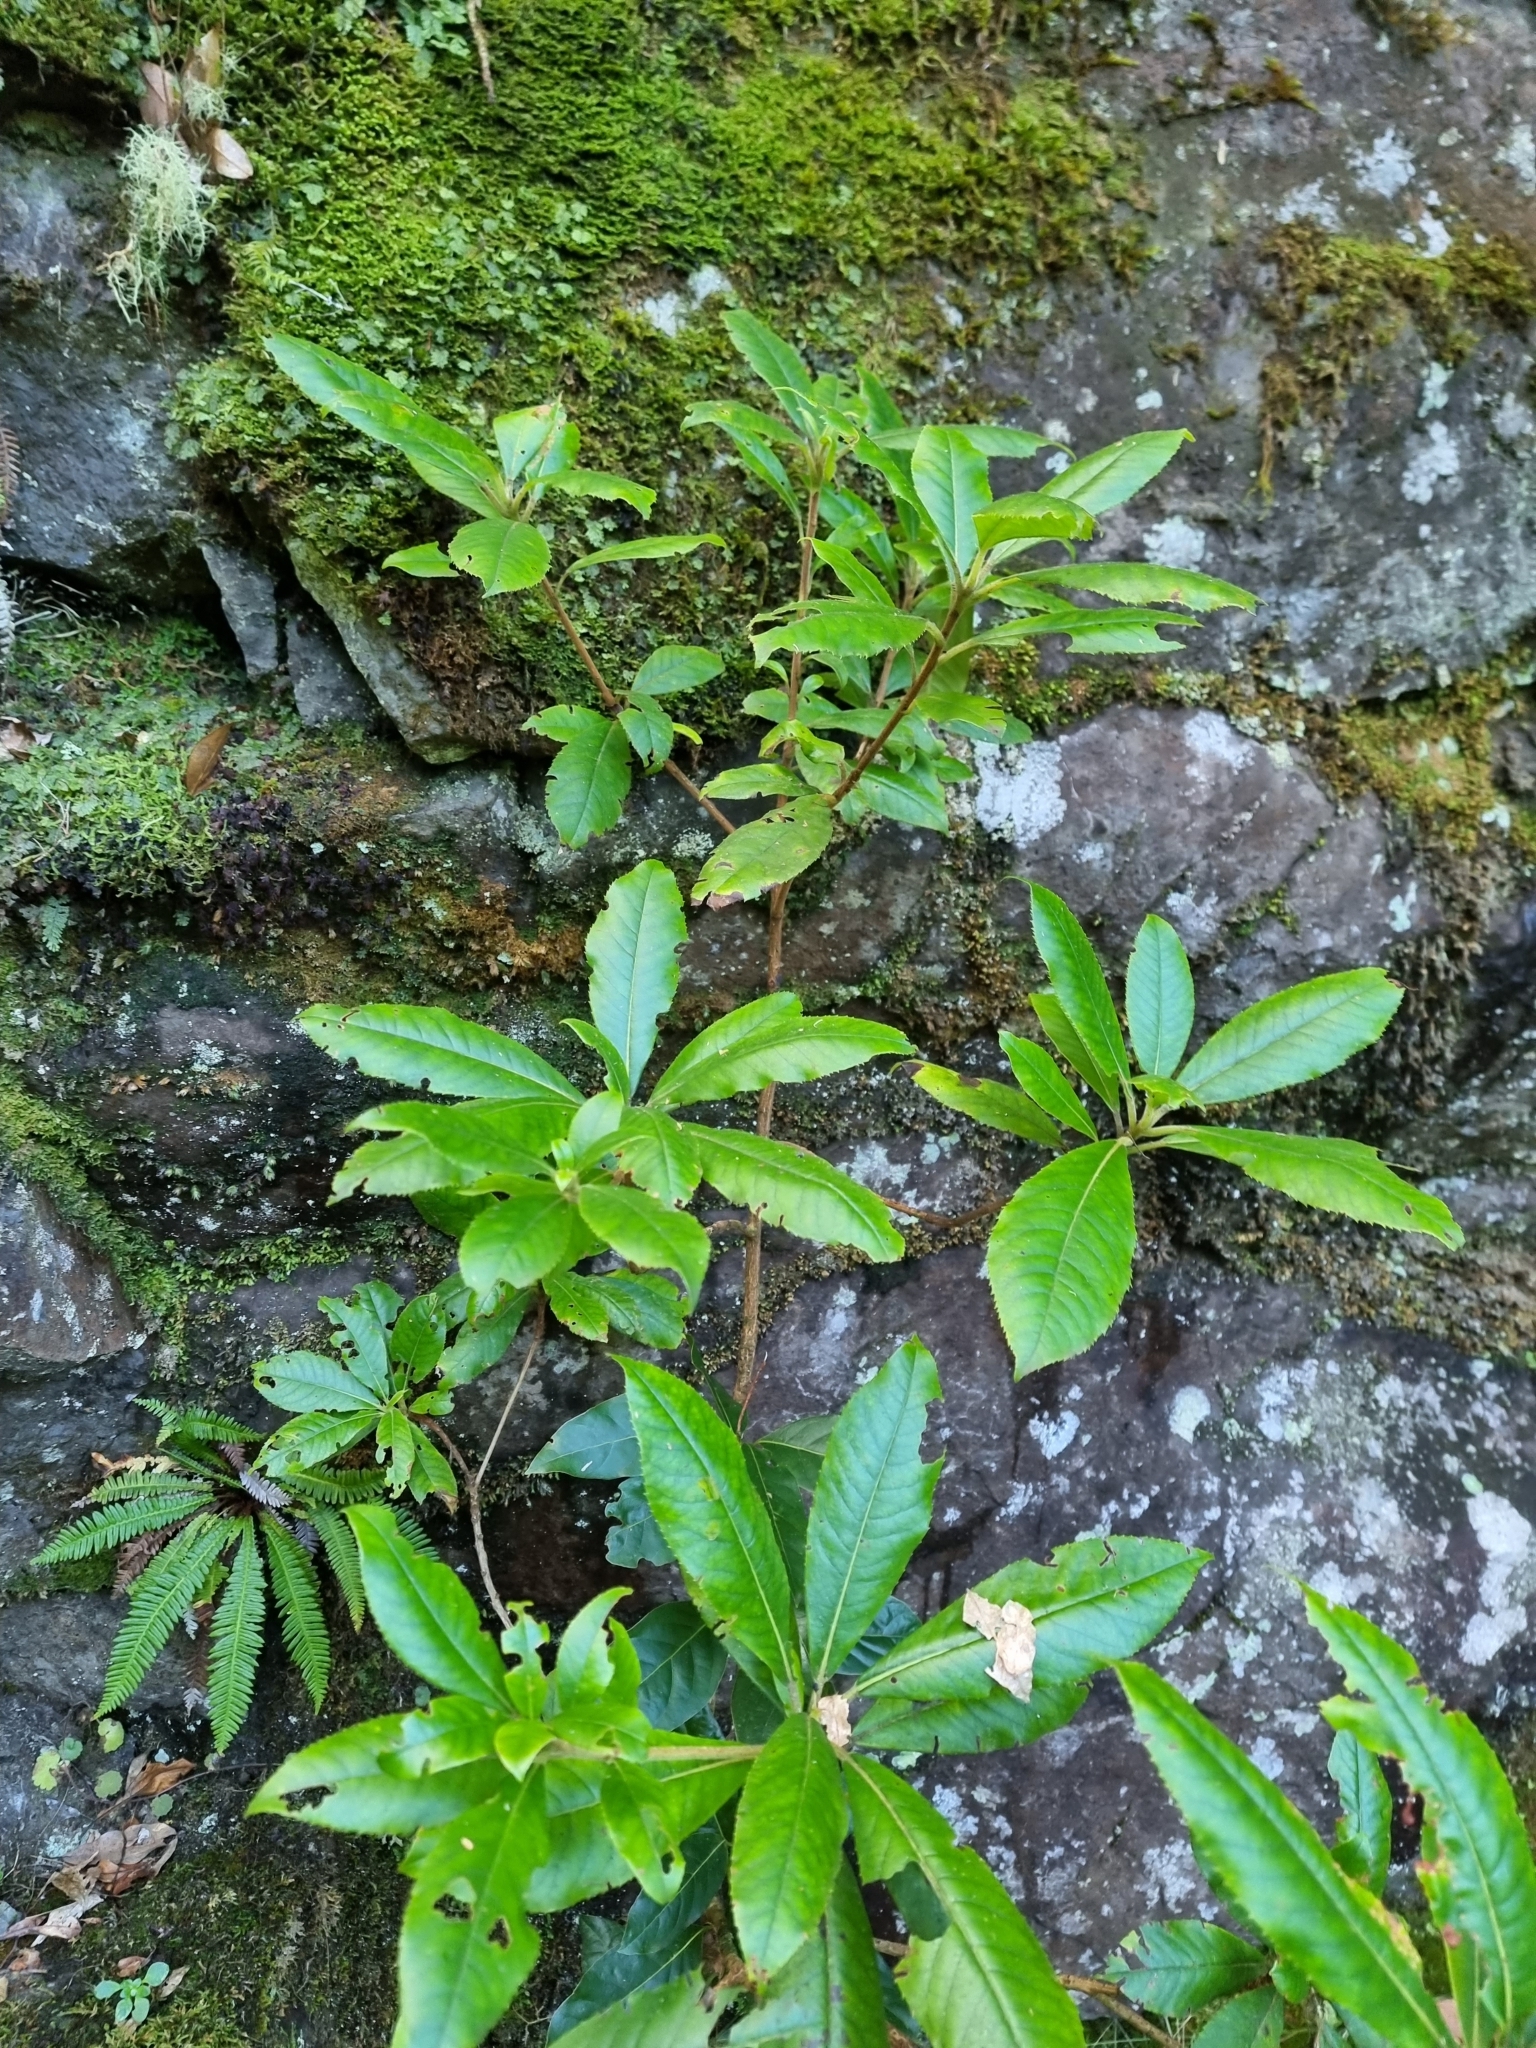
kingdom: Plantae
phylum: Tracheophyta
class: Magnoliopsida
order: Ericales
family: Clethraceae
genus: Clethra
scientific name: Clethra arborea
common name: Lily-of-the-valley-tree
